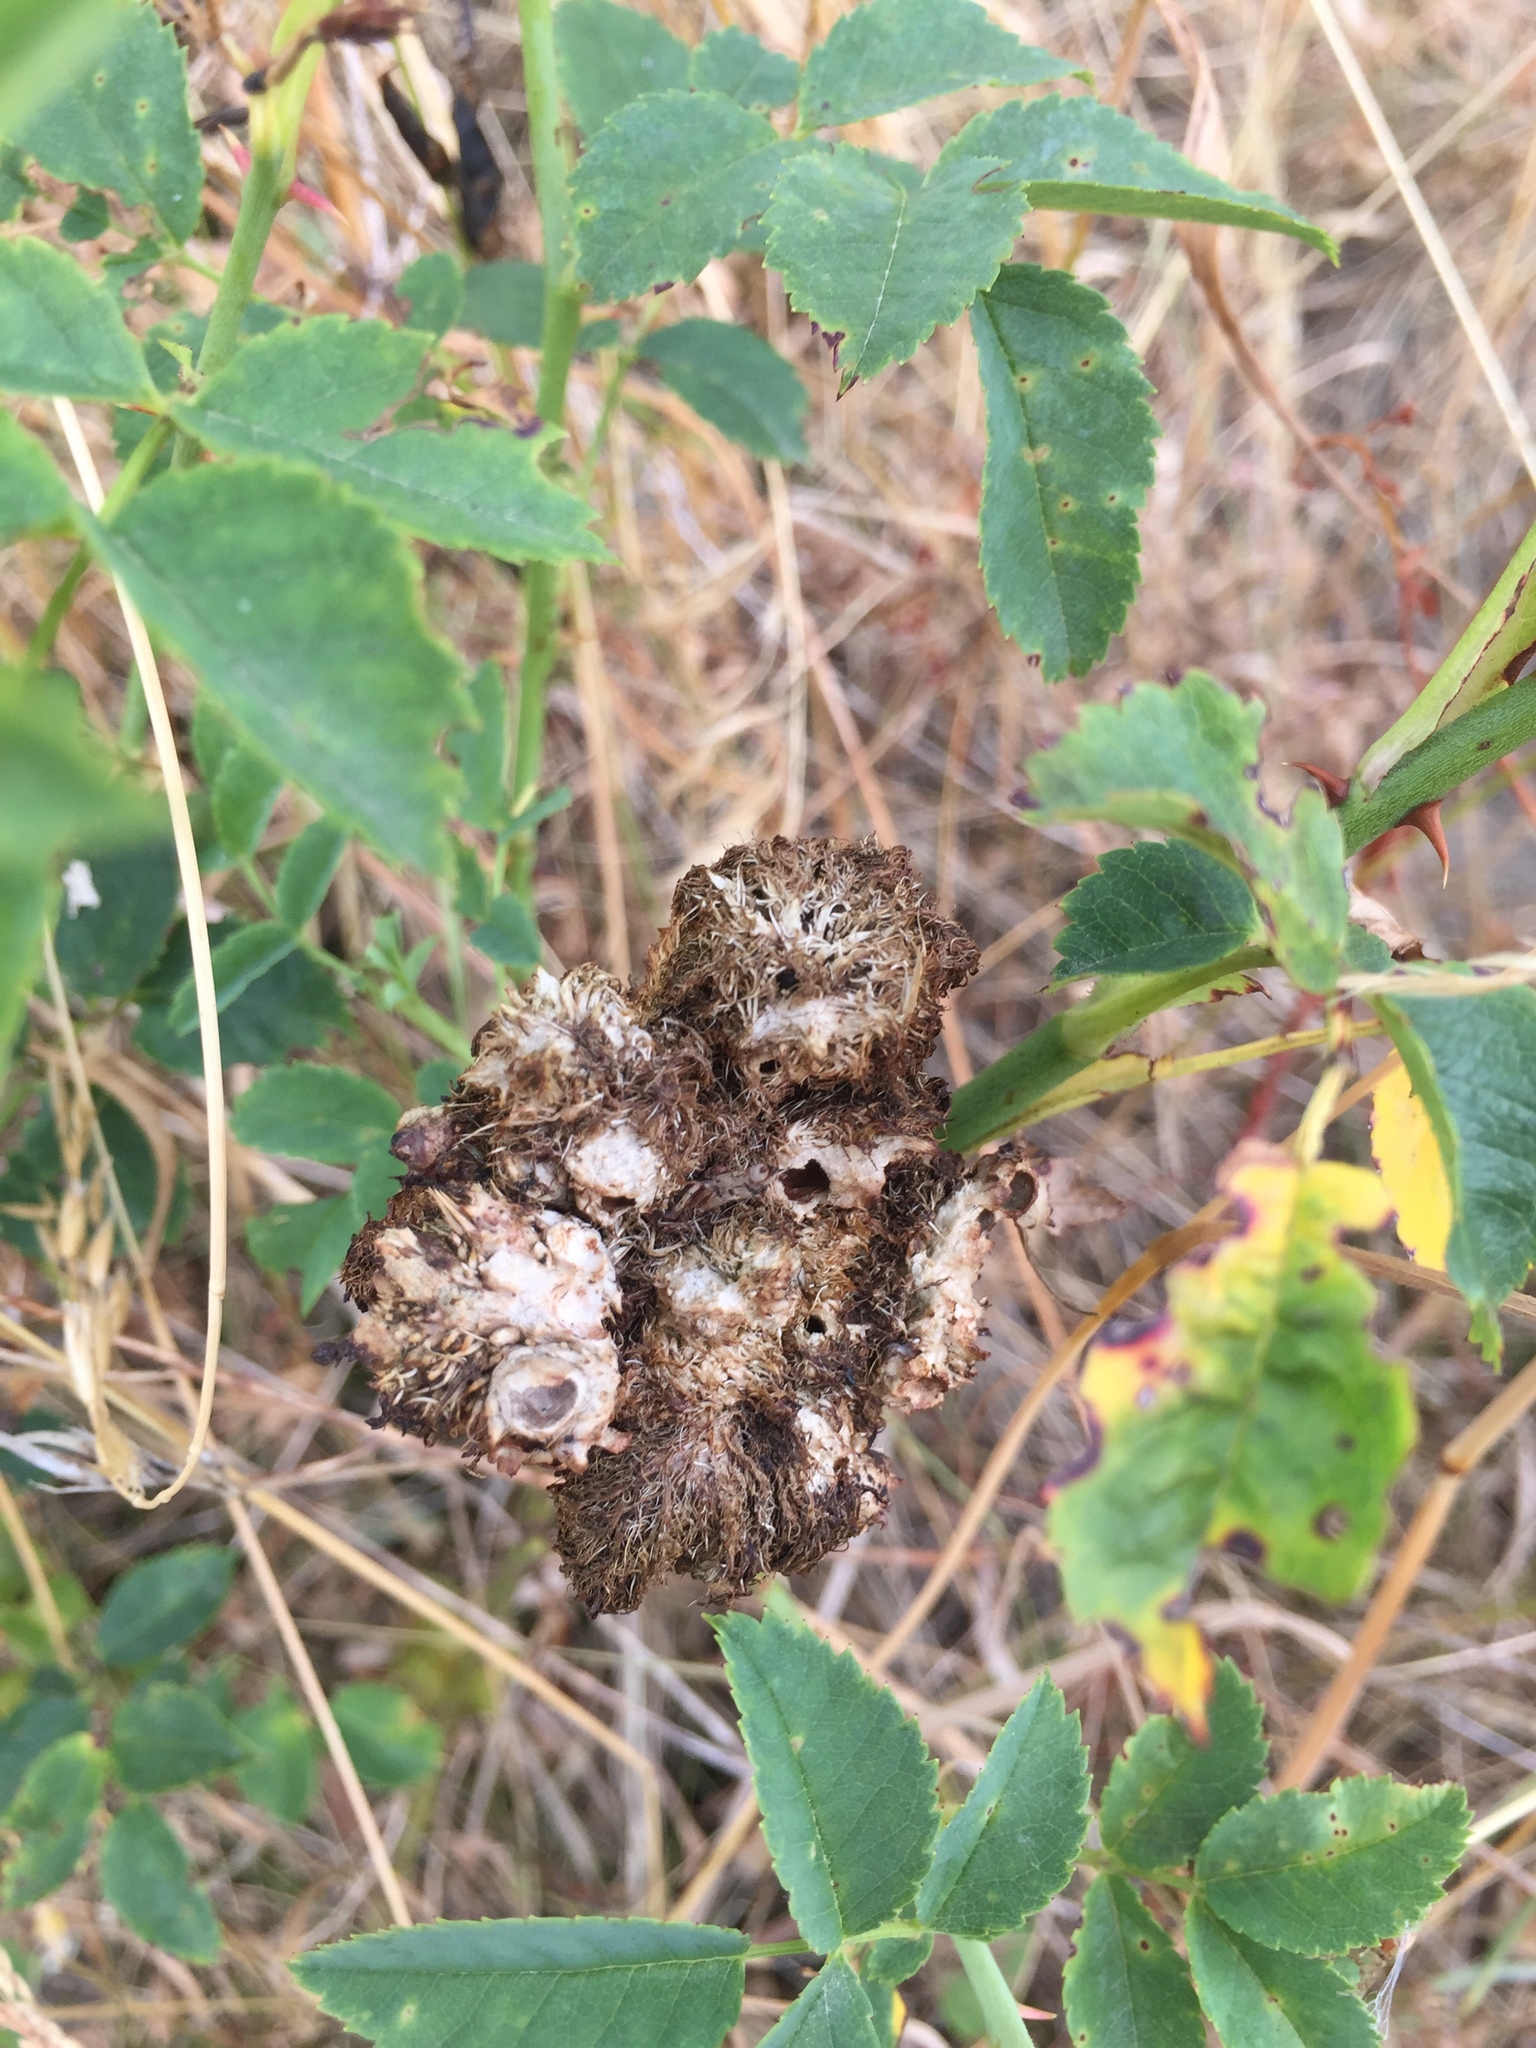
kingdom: Animalia
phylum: Arthropoda
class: Insecta
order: Hymenoptera
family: Cynipidae
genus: Diplolepis
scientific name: Diplolepis rosae
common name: Bedeguar gall
